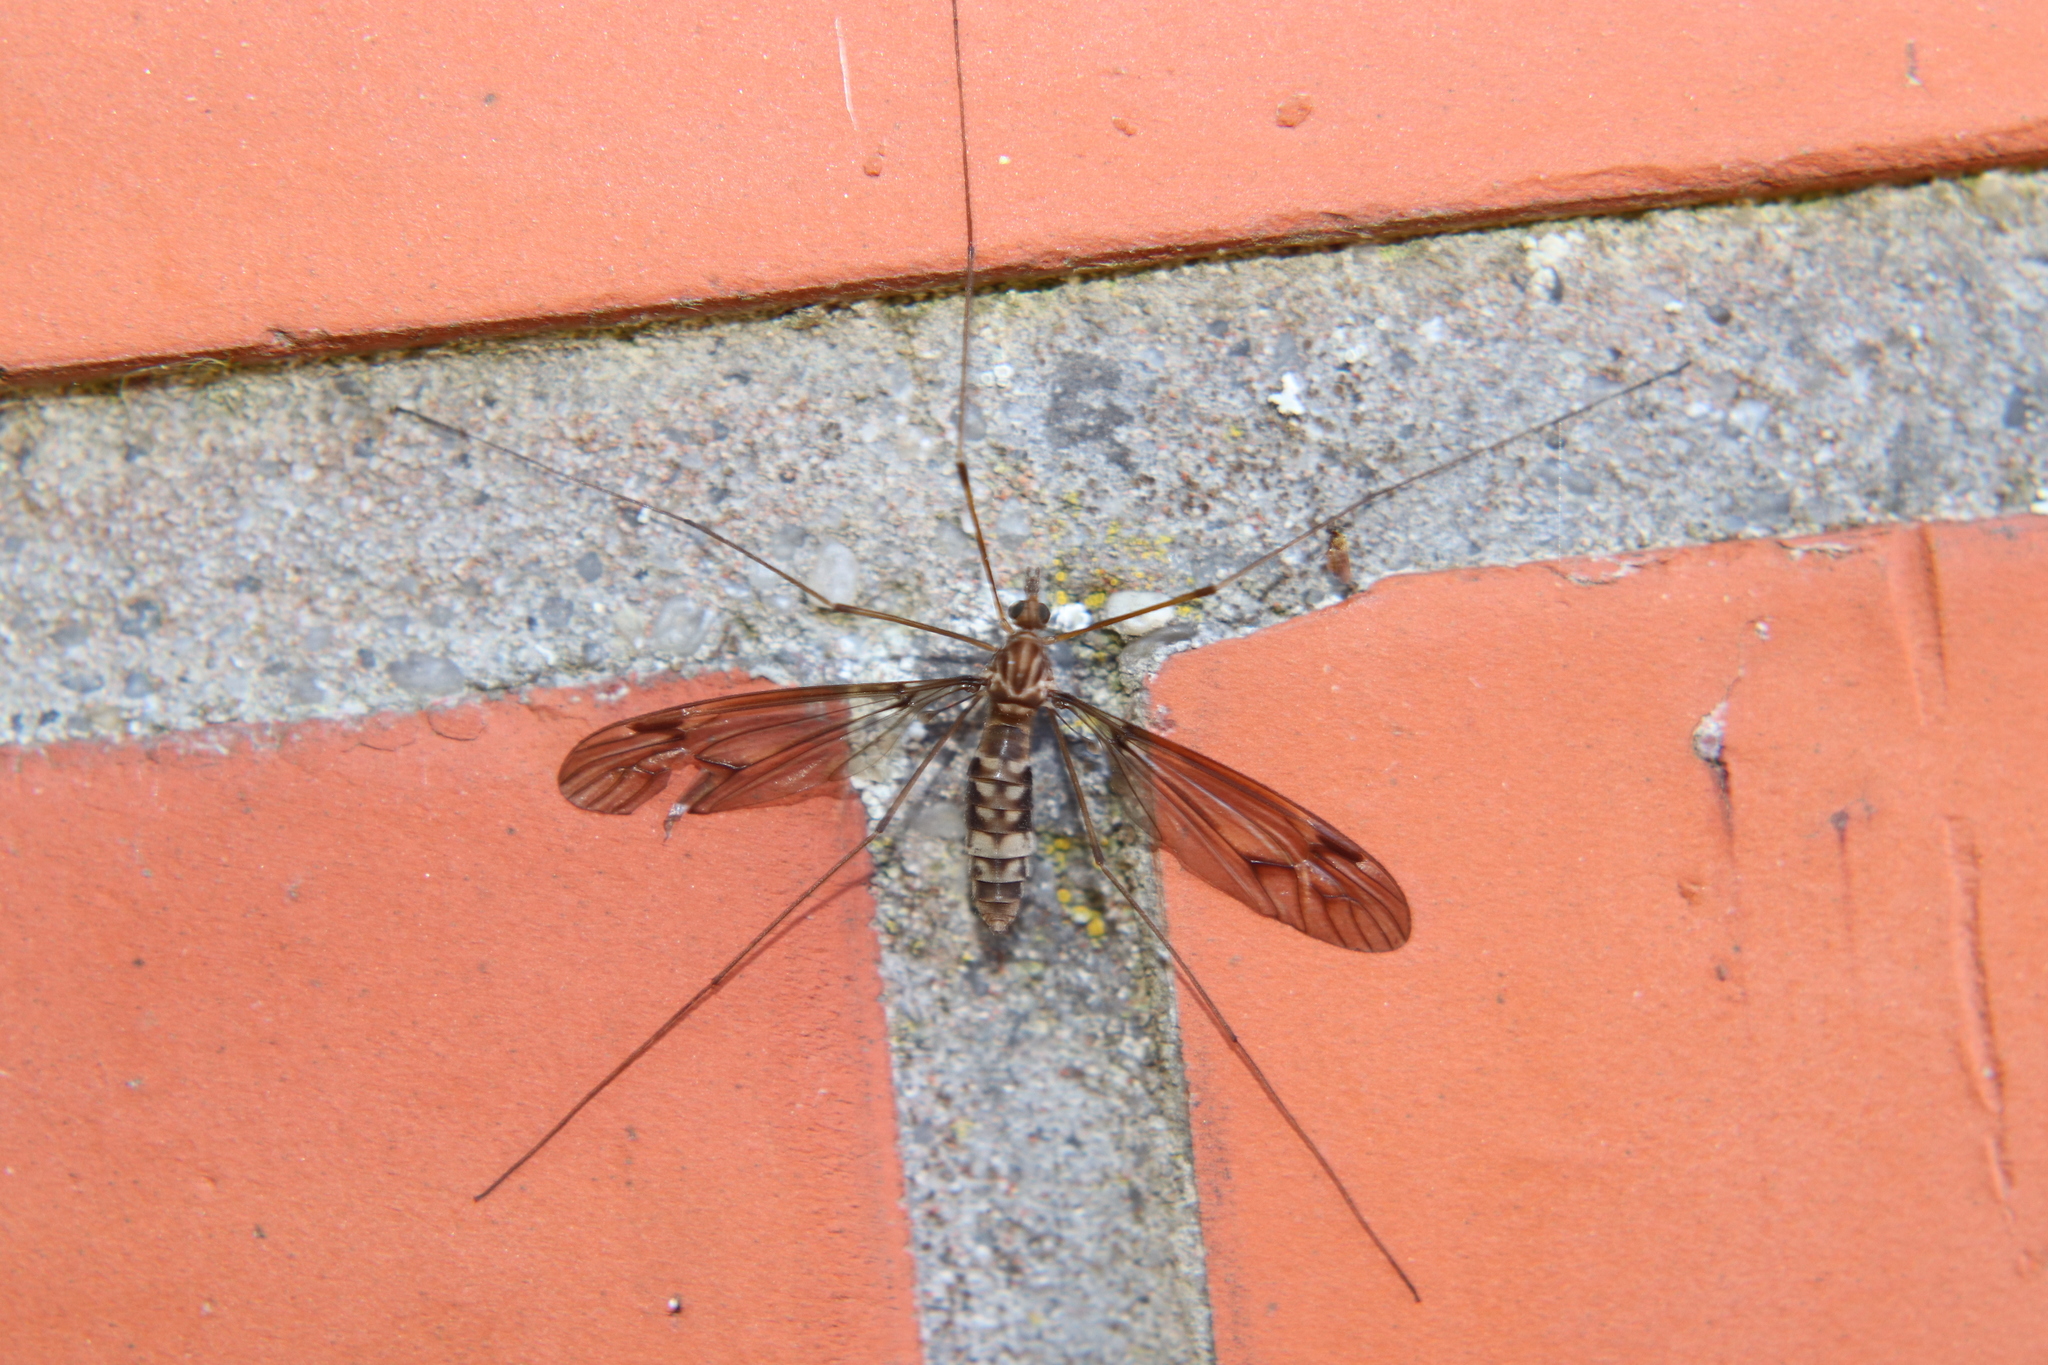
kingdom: Animalia
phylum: Arthropoda
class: Insecta
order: Diptera
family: Tipulidae
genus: Leptotarsus
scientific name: Leptotarsus cubitalis
